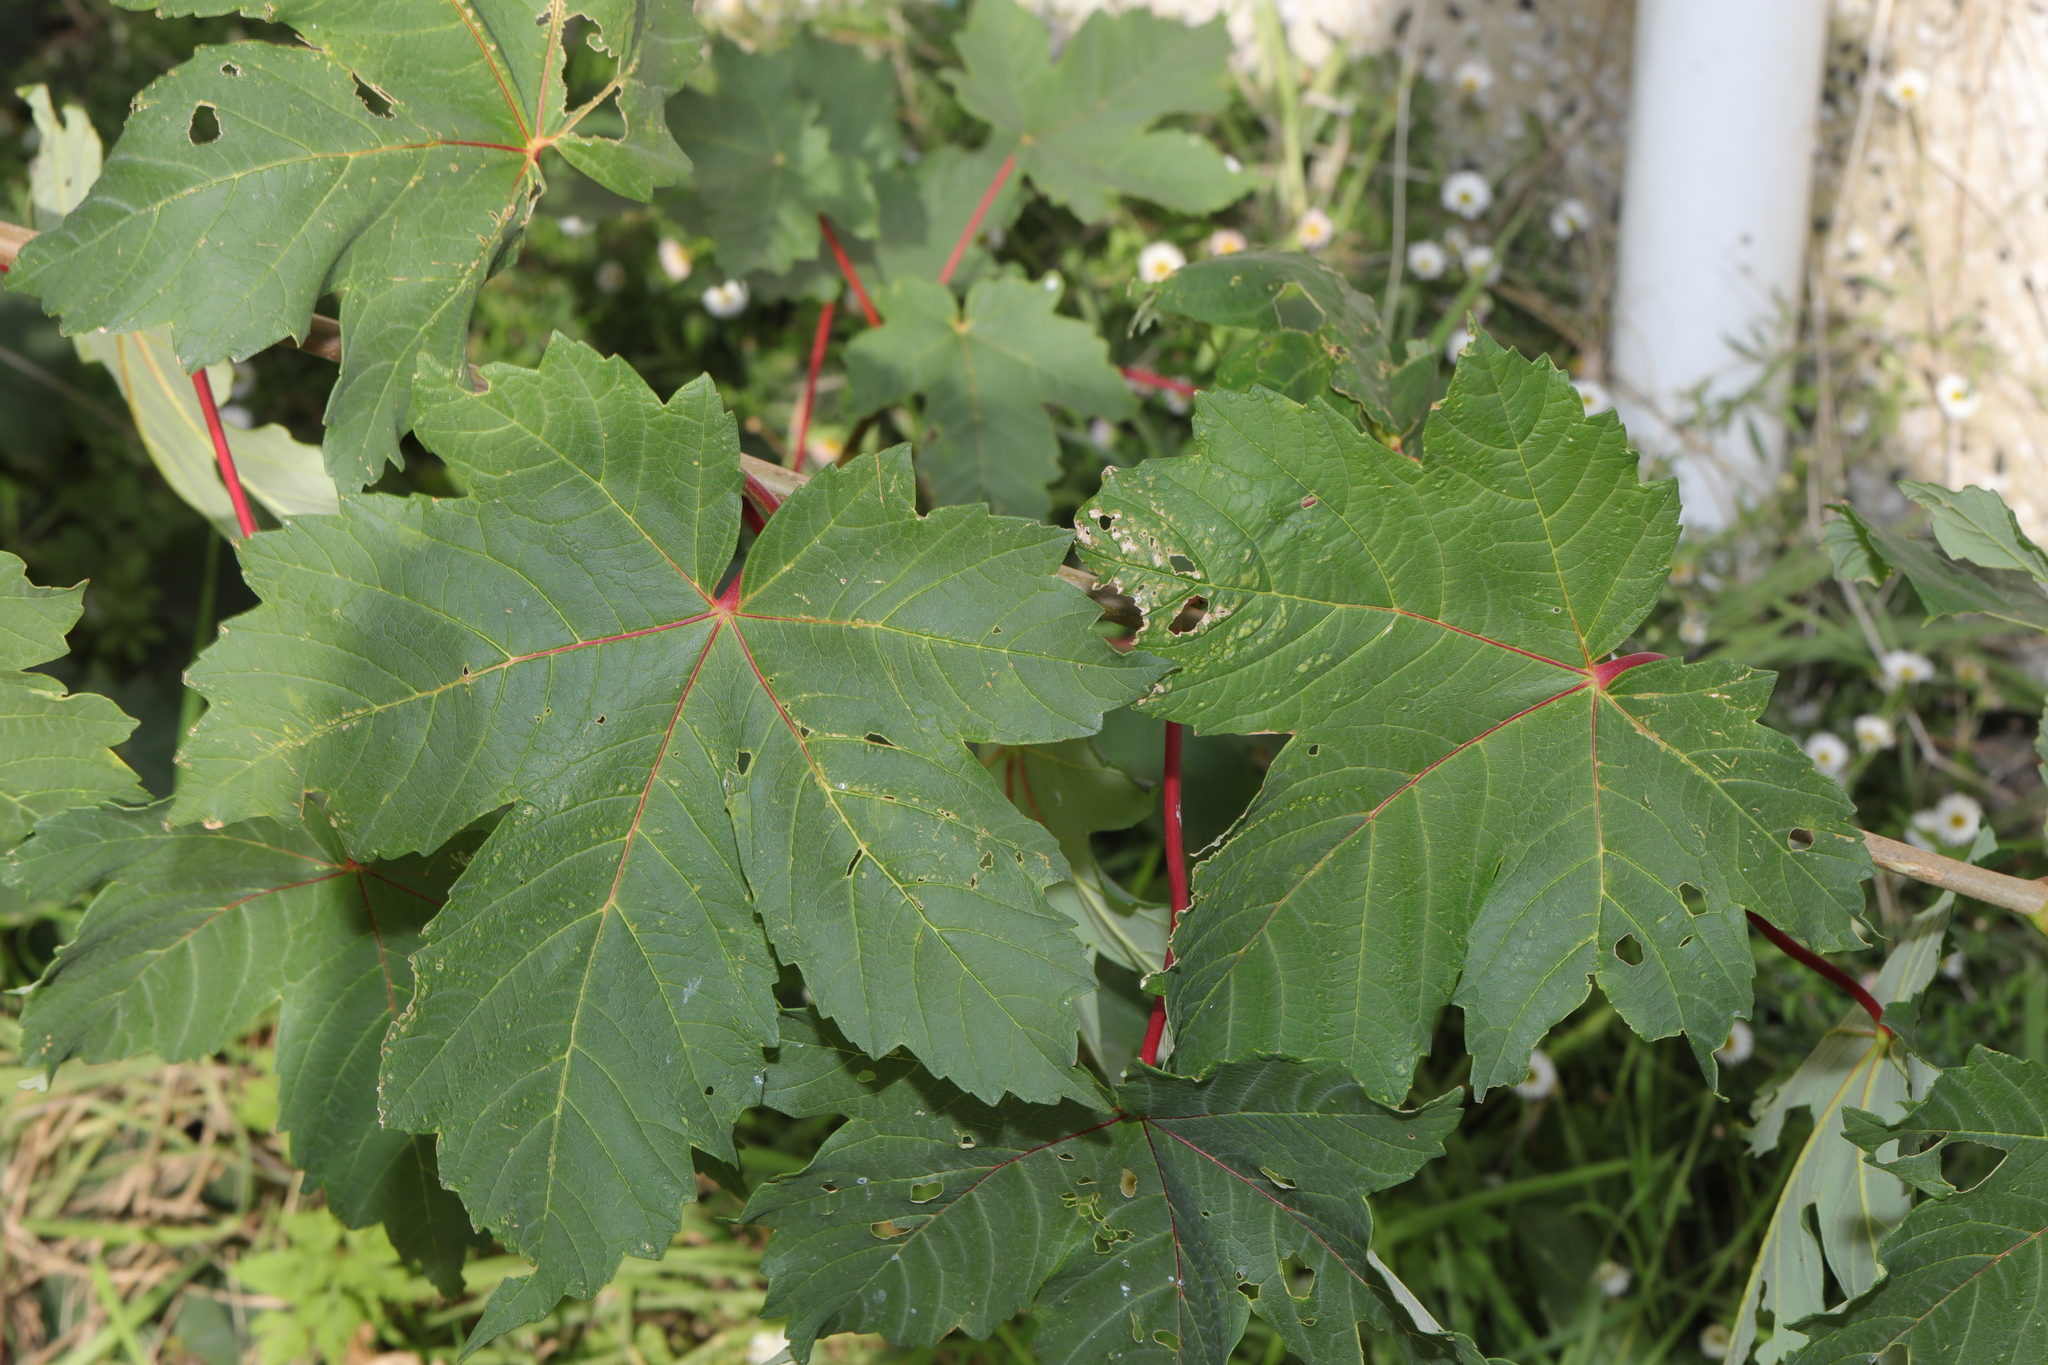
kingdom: Plantae
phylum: Tracheophyta
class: Magnoliopsida
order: Sapindales
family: Sapindaceae
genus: Acer
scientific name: Acer pseudoplatanus
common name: Sycamore
